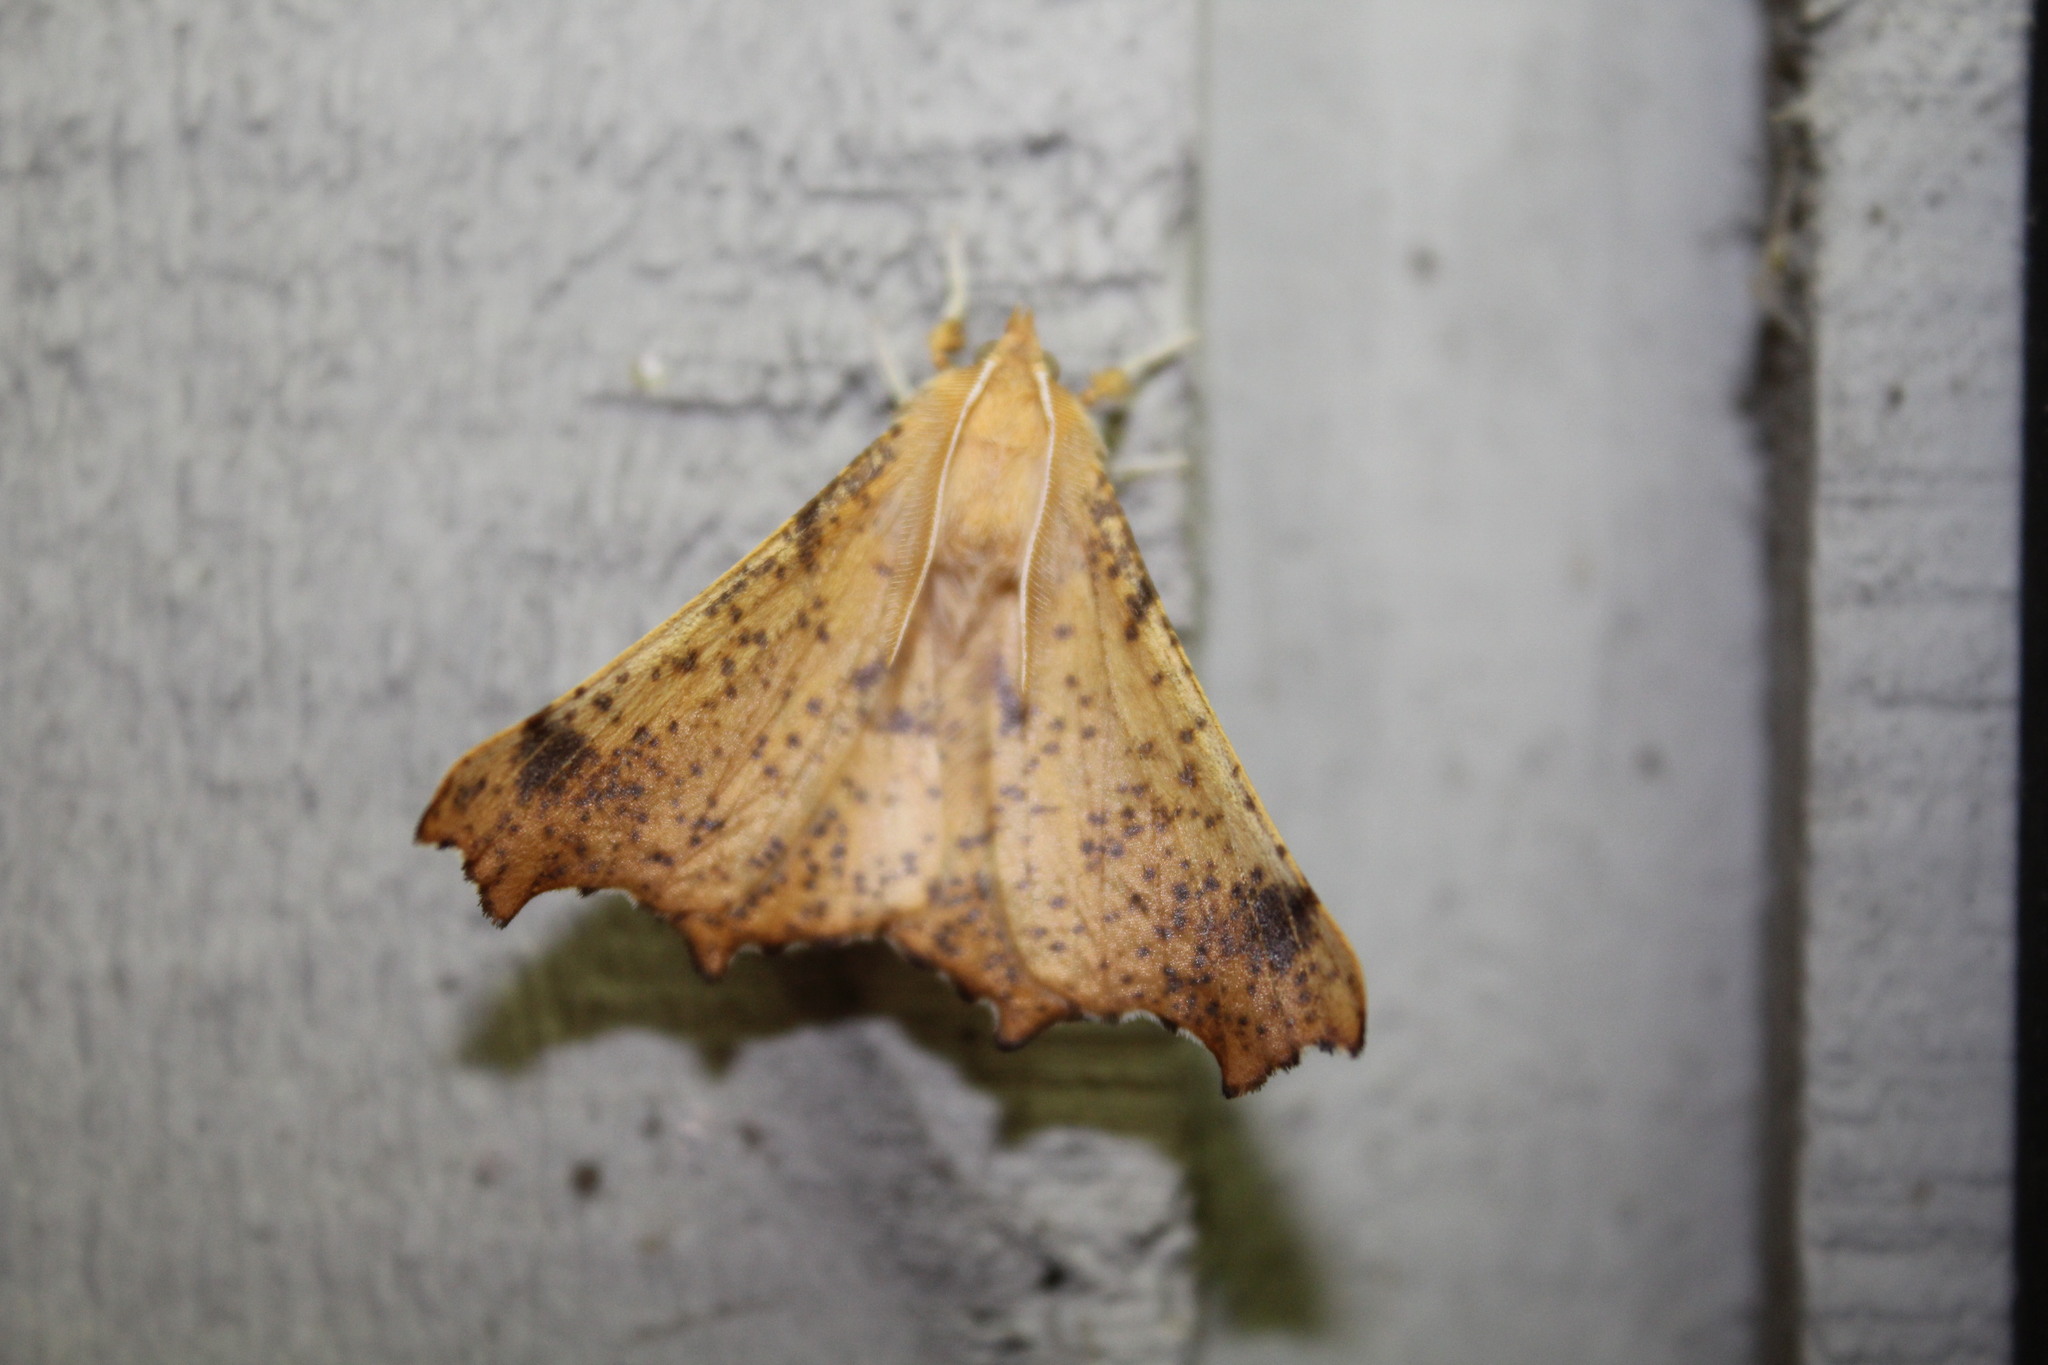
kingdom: Animalia
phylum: Arthropoda
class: Insecta
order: Lepidoptera
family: Geometridae
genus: Ennomos
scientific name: Ennomos magnaria
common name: Maple spanworm
